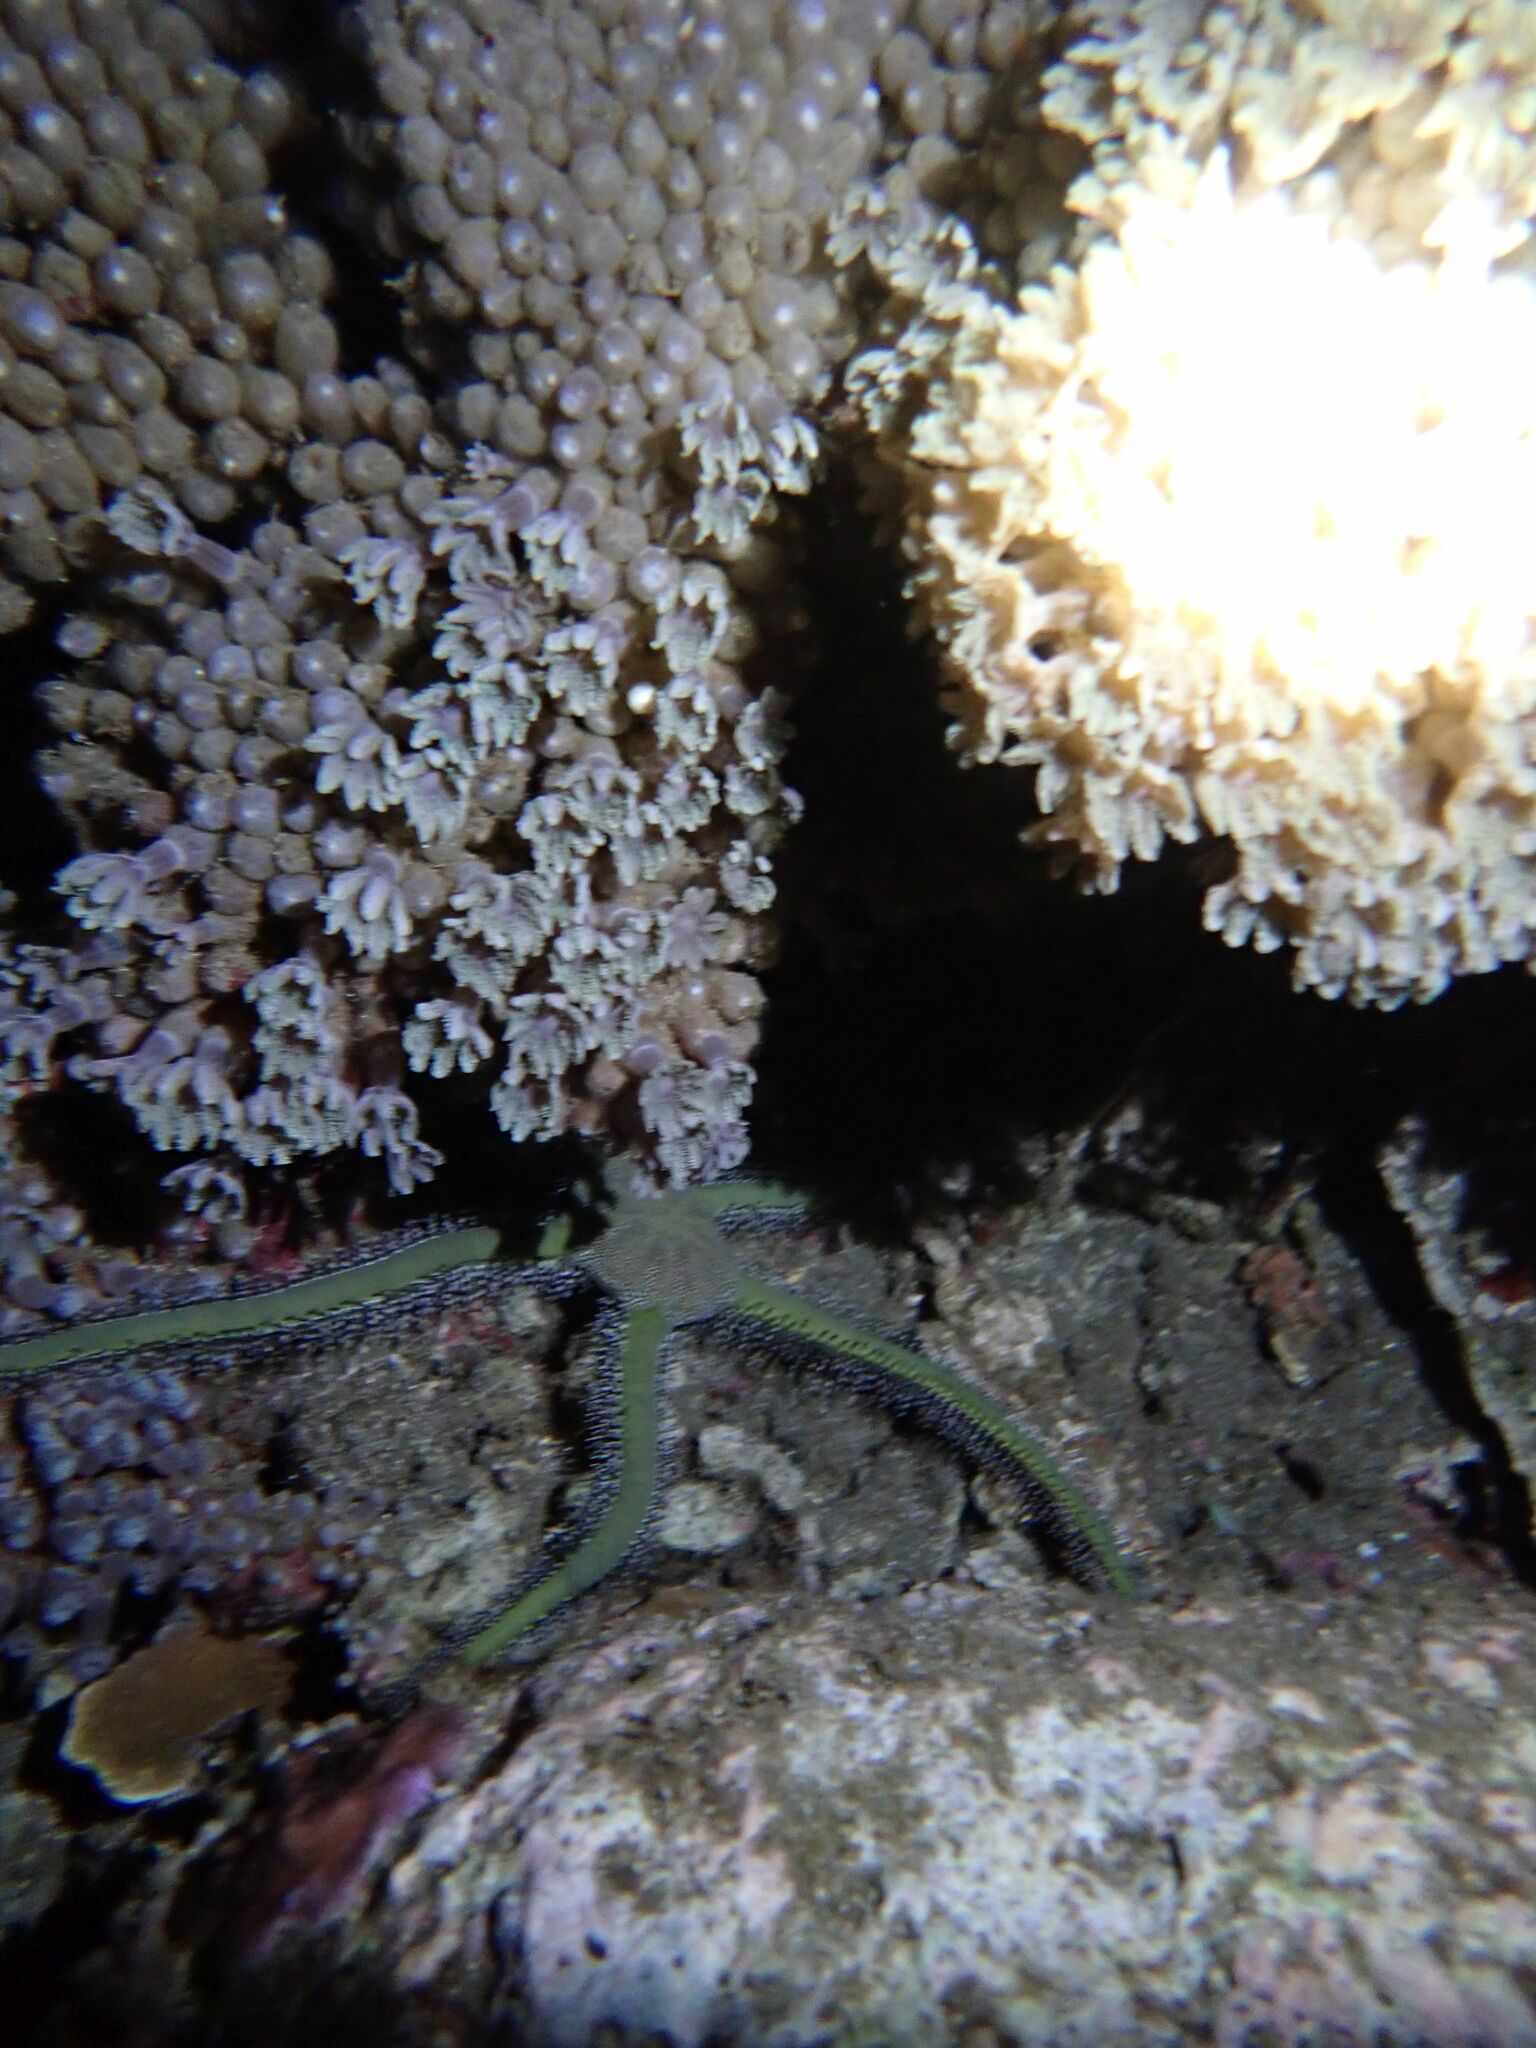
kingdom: Animalia
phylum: Echinodermata
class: Ophiuroidea
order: Ophiacanthida
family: Ophiomyxidae
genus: Ophiarachna
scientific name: Ophiarachna incrassata
